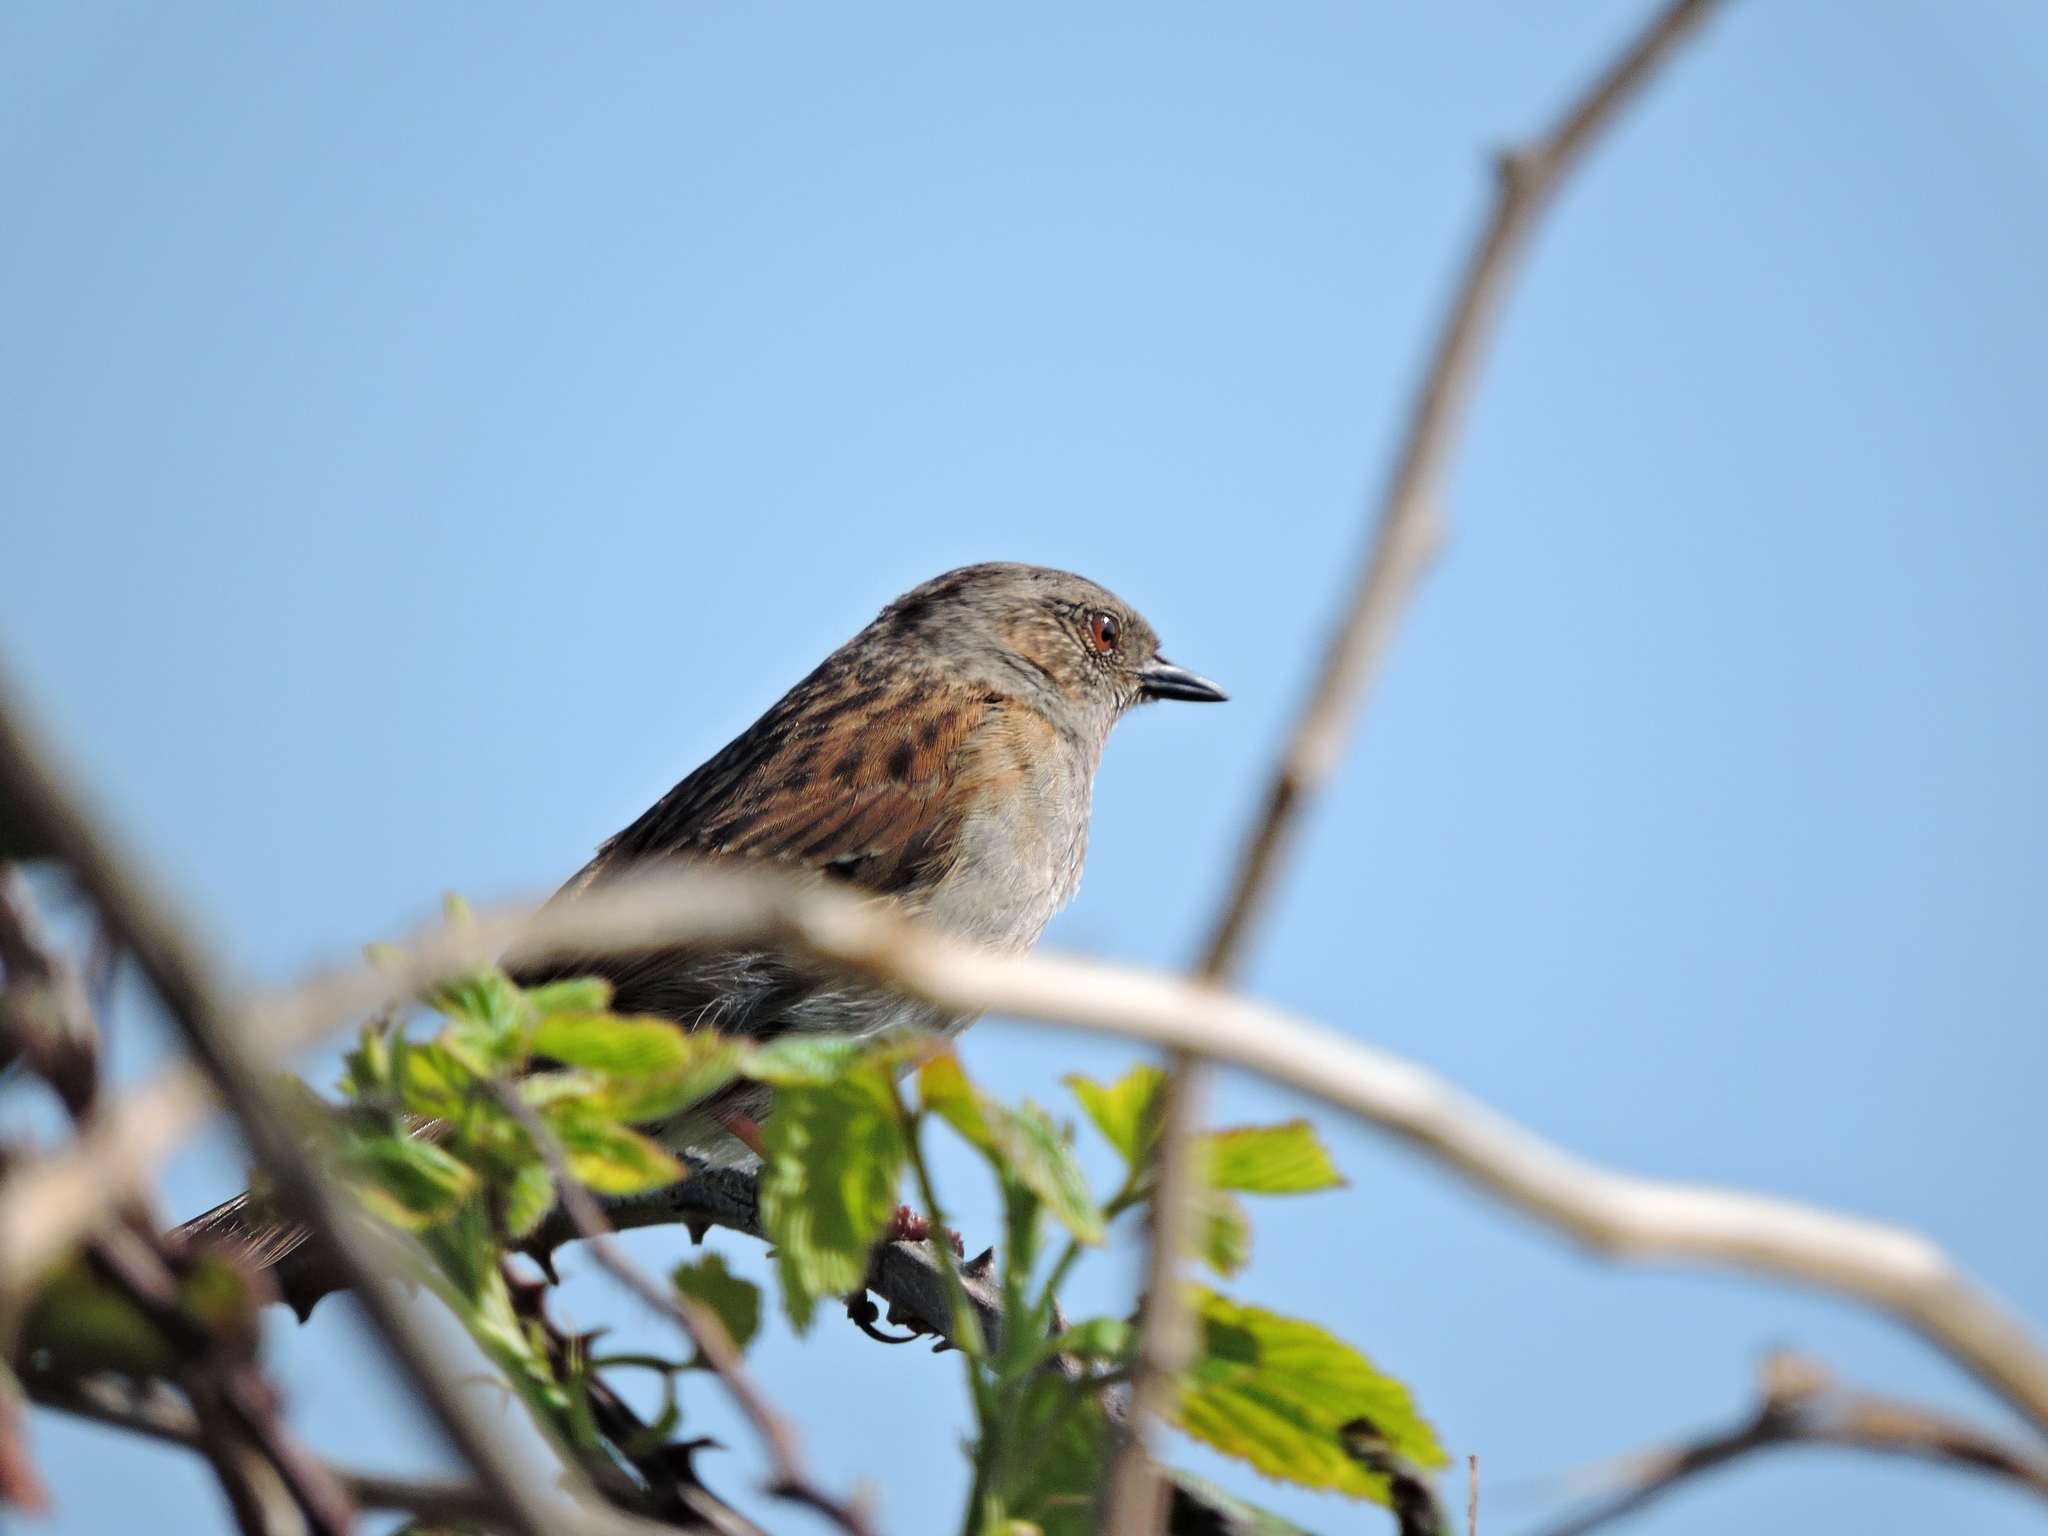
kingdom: Animalia
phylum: Chordata
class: Aves
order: Passeriformes
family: Prunellidae
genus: Prunella
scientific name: Prunella modularis
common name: Dunnock
